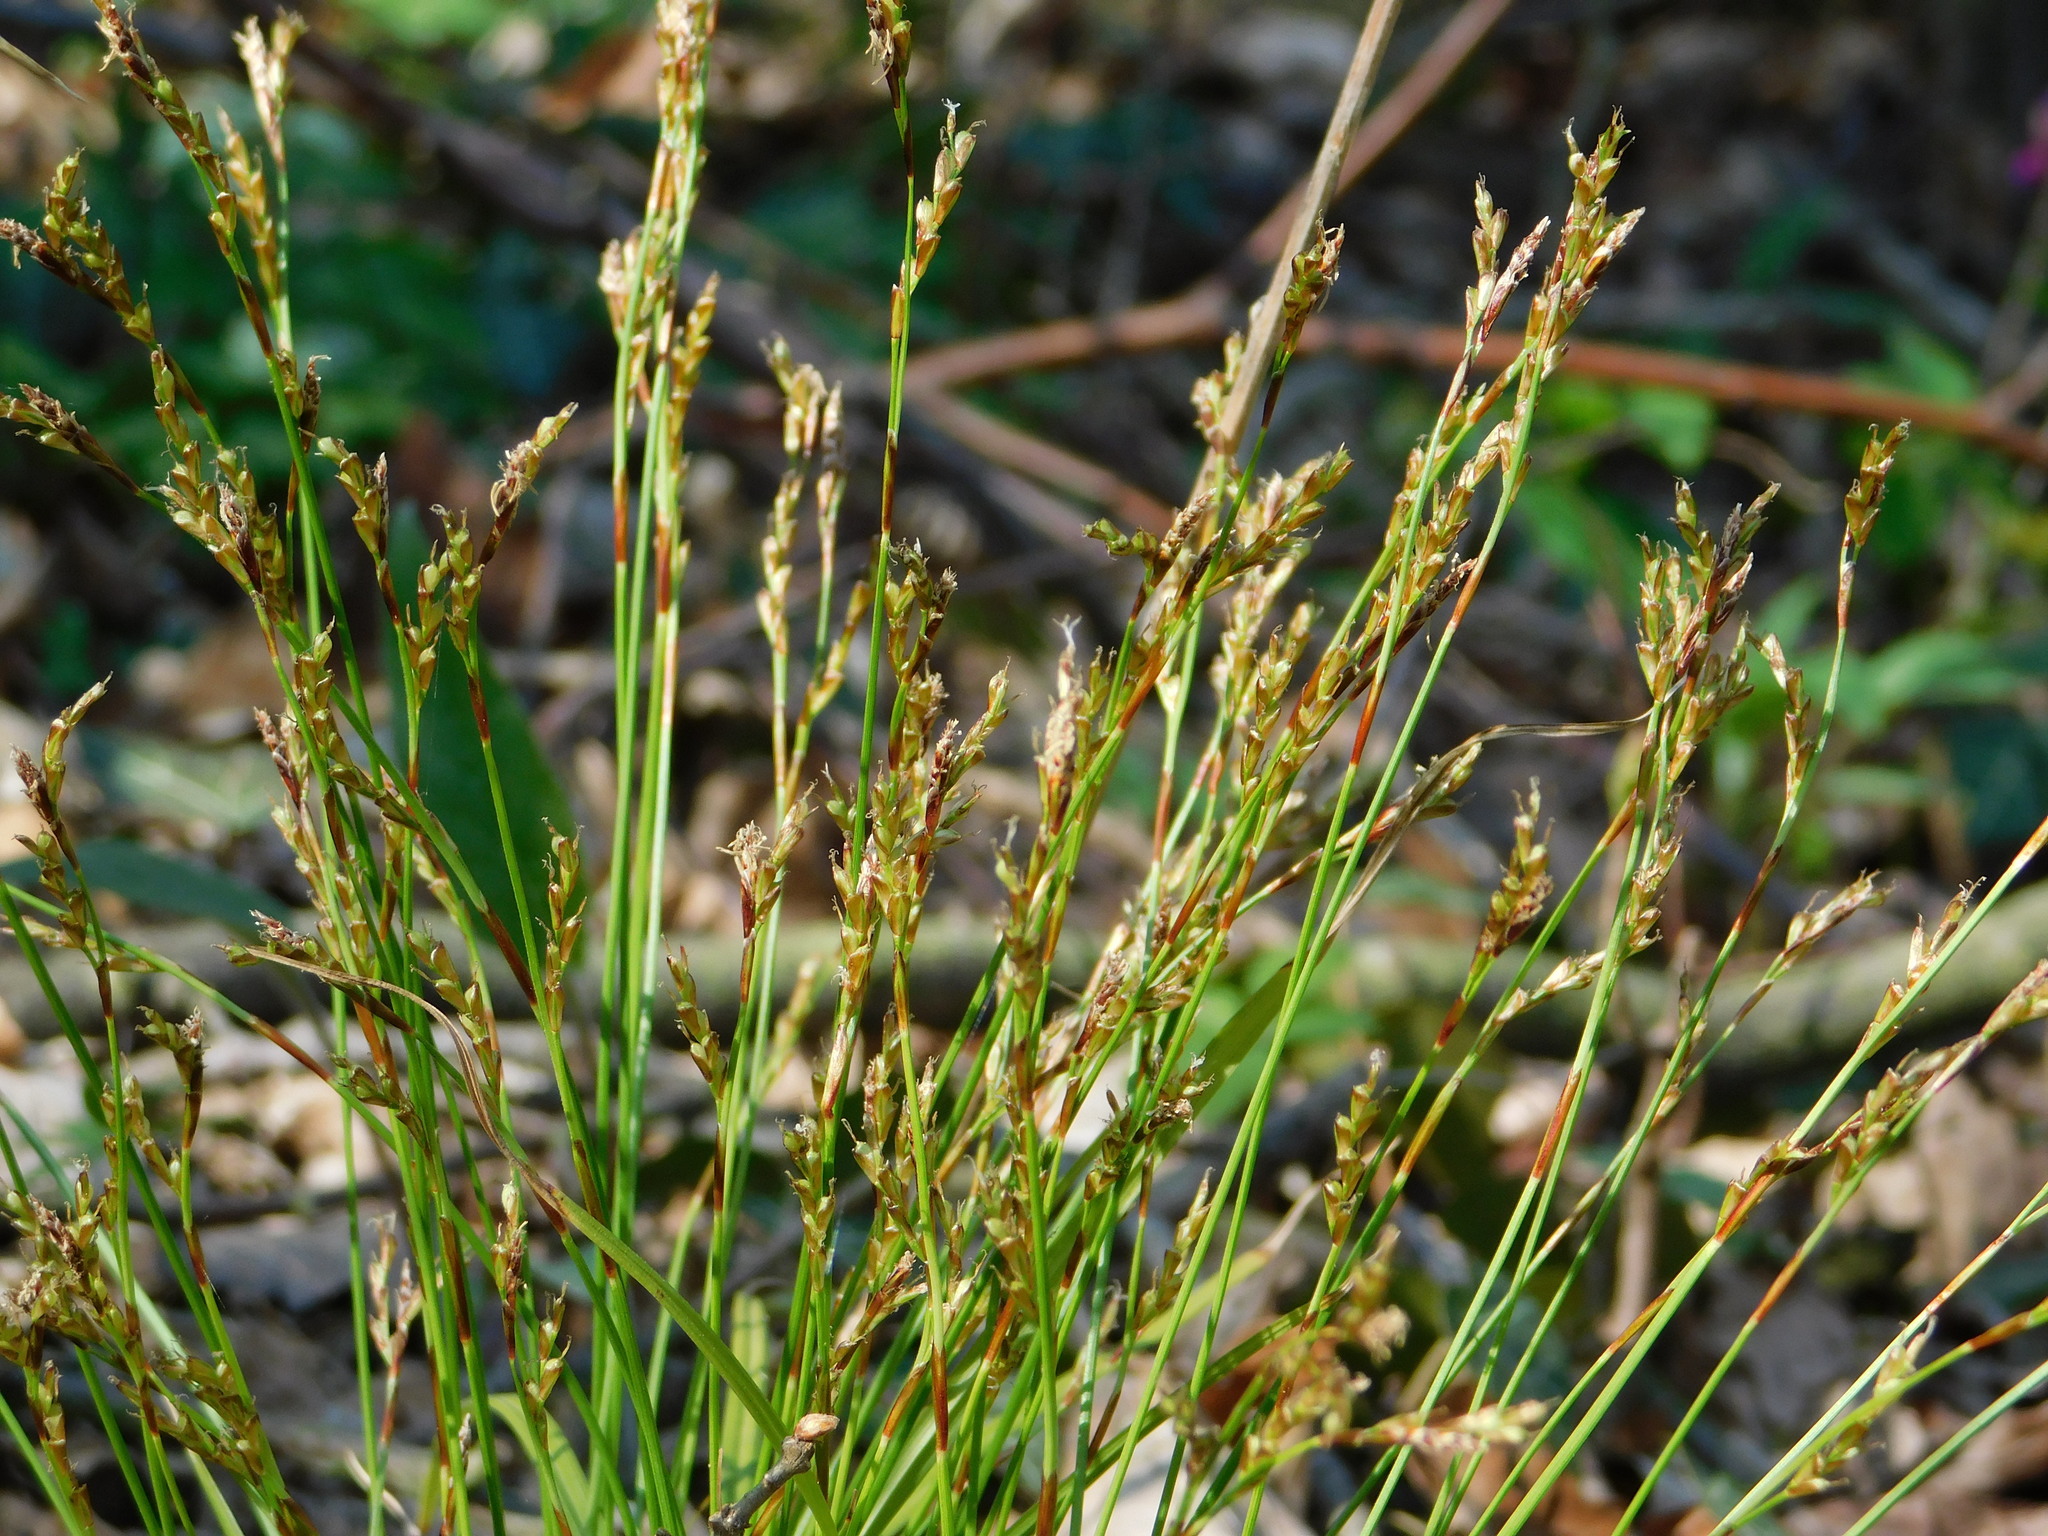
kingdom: Plantae
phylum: Tracheophyta
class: Liliopsida
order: Poales
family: Cyperaceae
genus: Carex
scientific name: Carex digitata
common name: Fingered sedge
